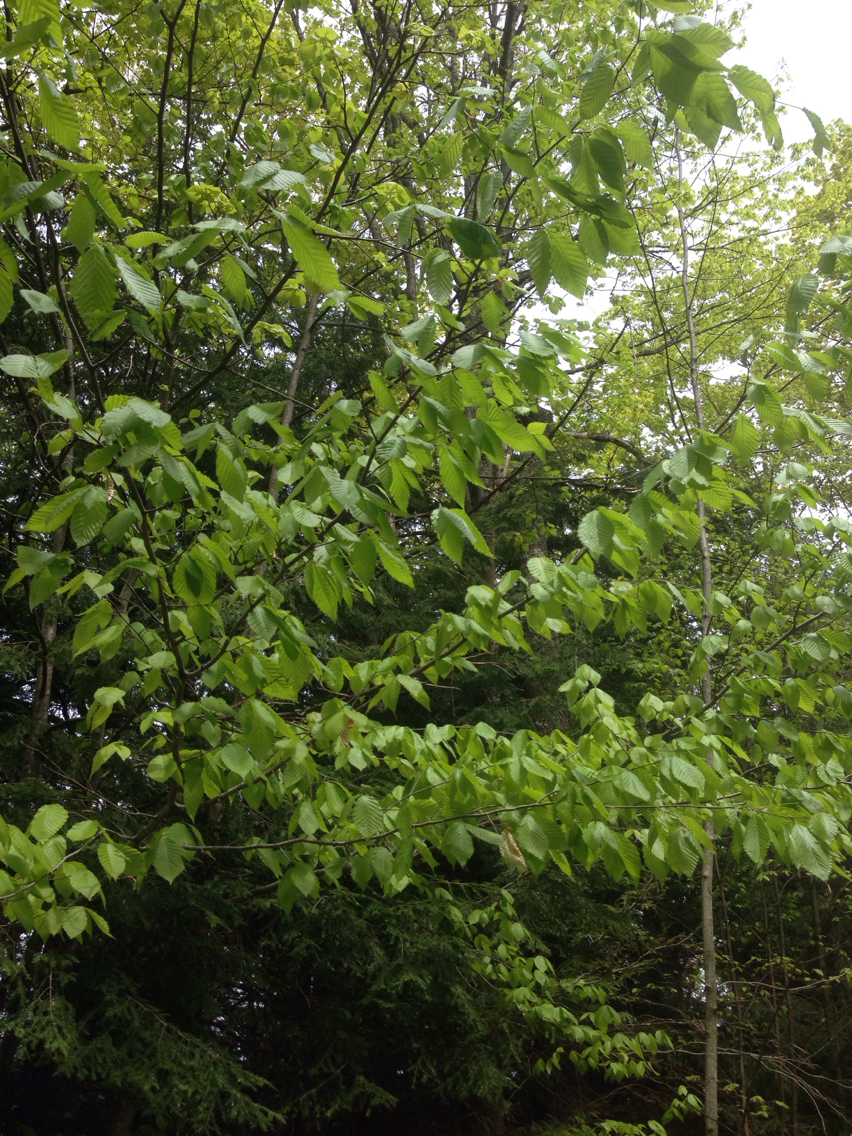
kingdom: Plantae
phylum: Tracheophyta
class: Magnoliopsida
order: Fagales
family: Fagaceae
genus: Fagus
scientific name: Fagus grandifolia
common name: American beech
